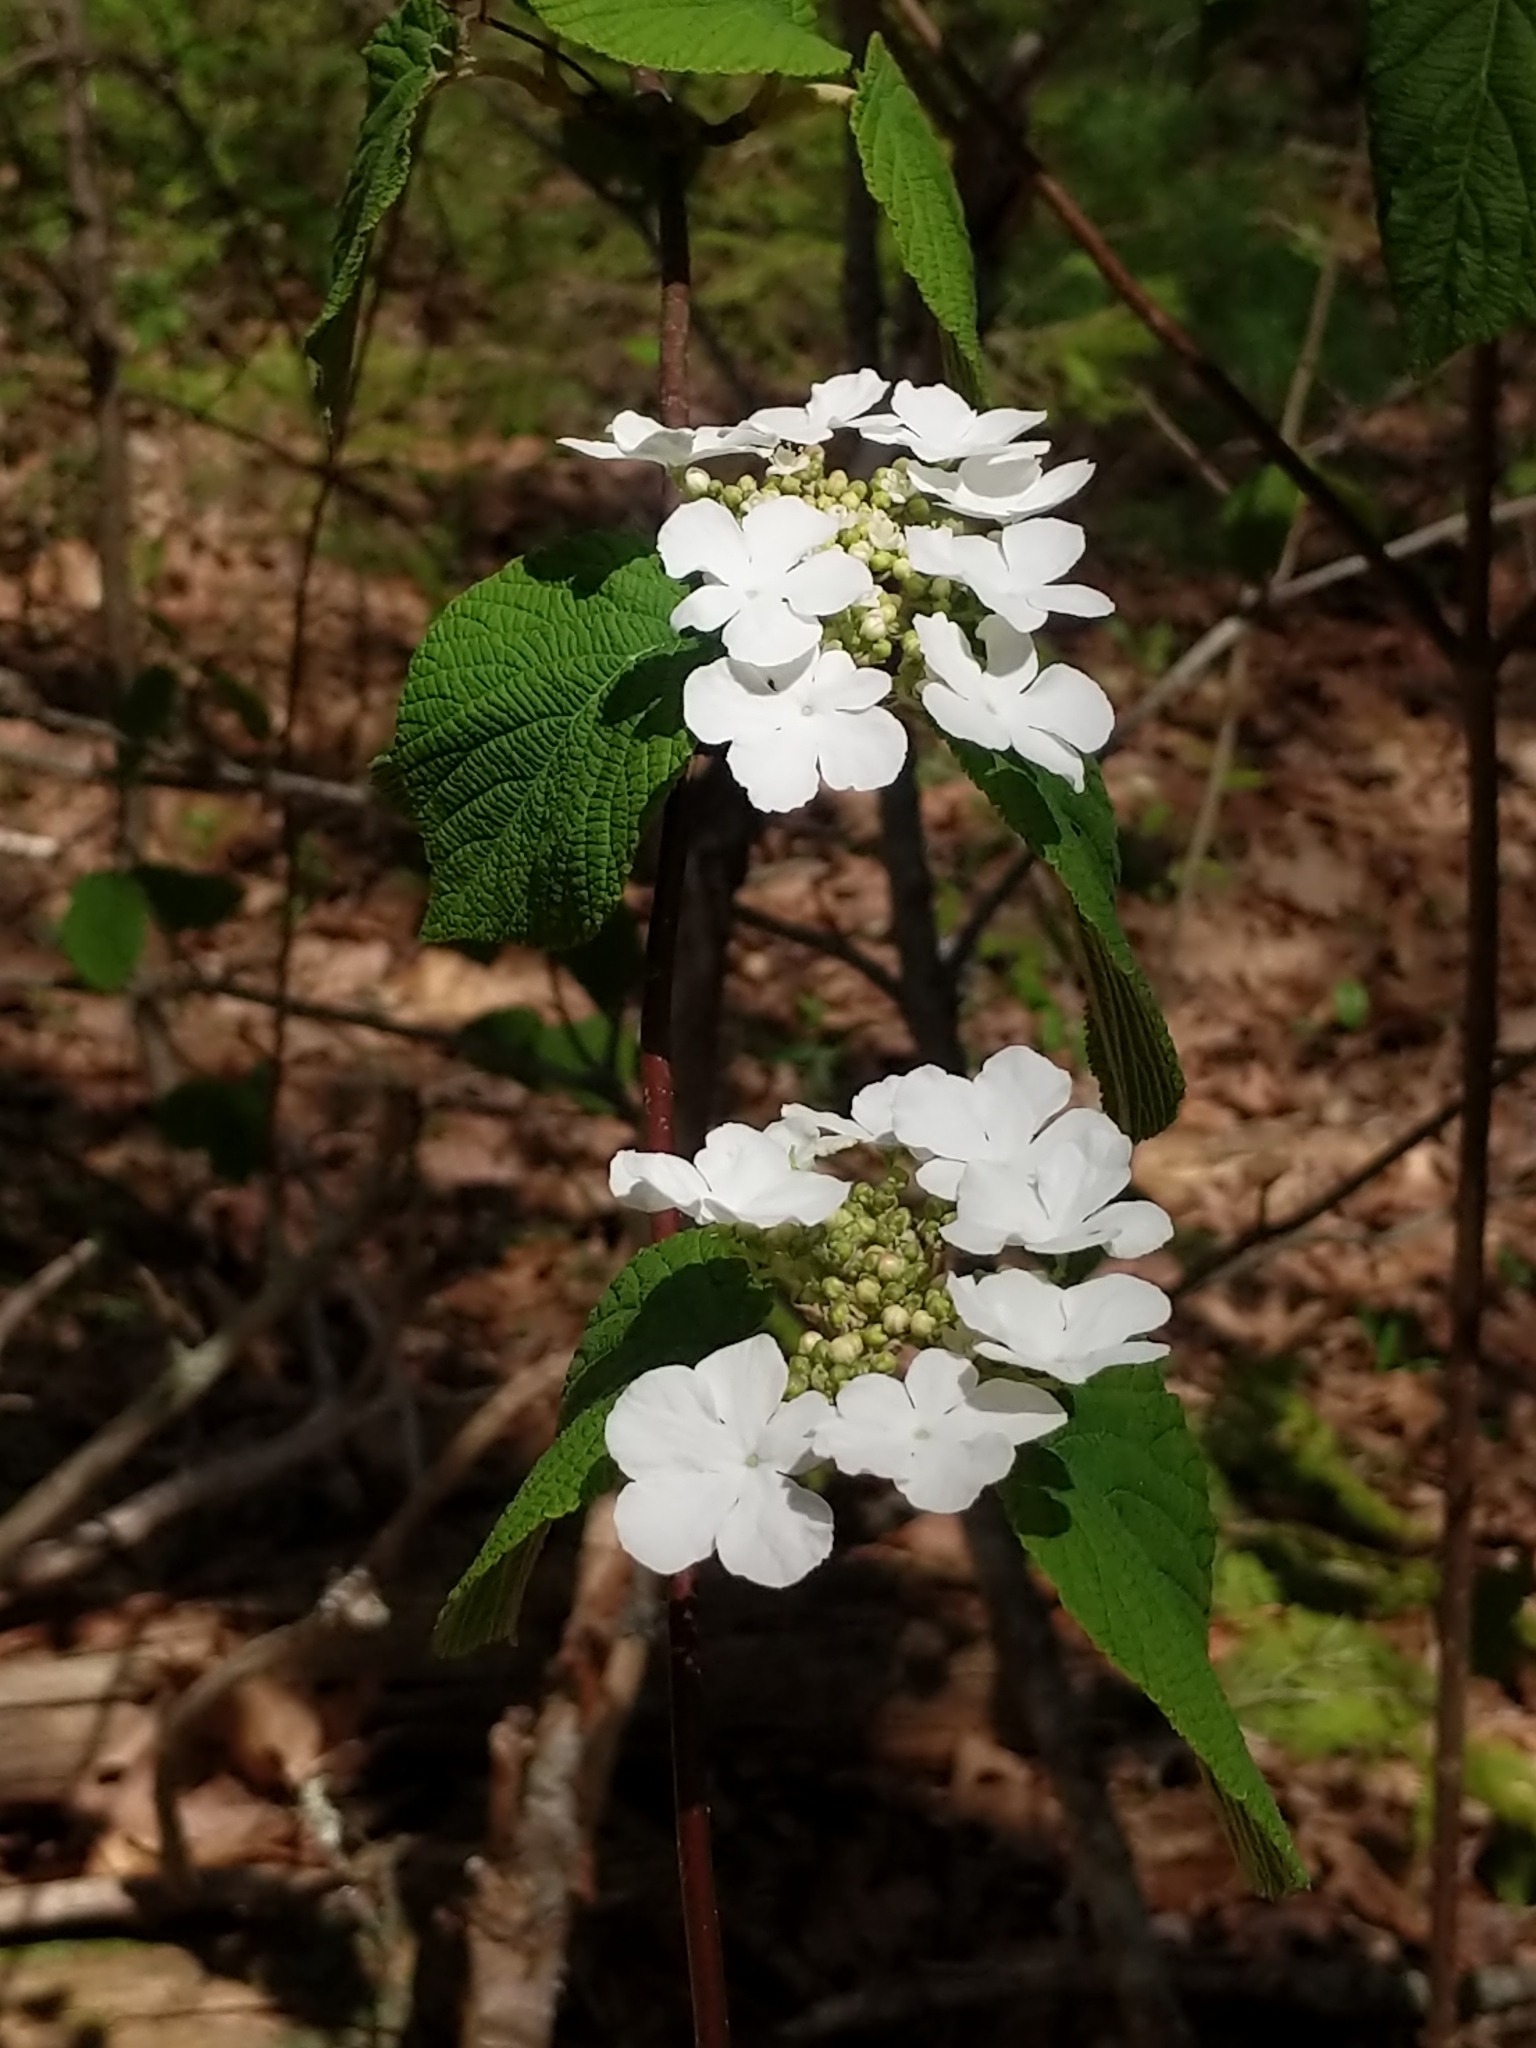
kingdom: Plantae
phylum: Tracheophyta
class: Magnoliopsida
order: Dipsacales
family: Viburnaceae
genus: Viburnum
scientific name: Viburnum lantanoides
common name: Hobblebush
